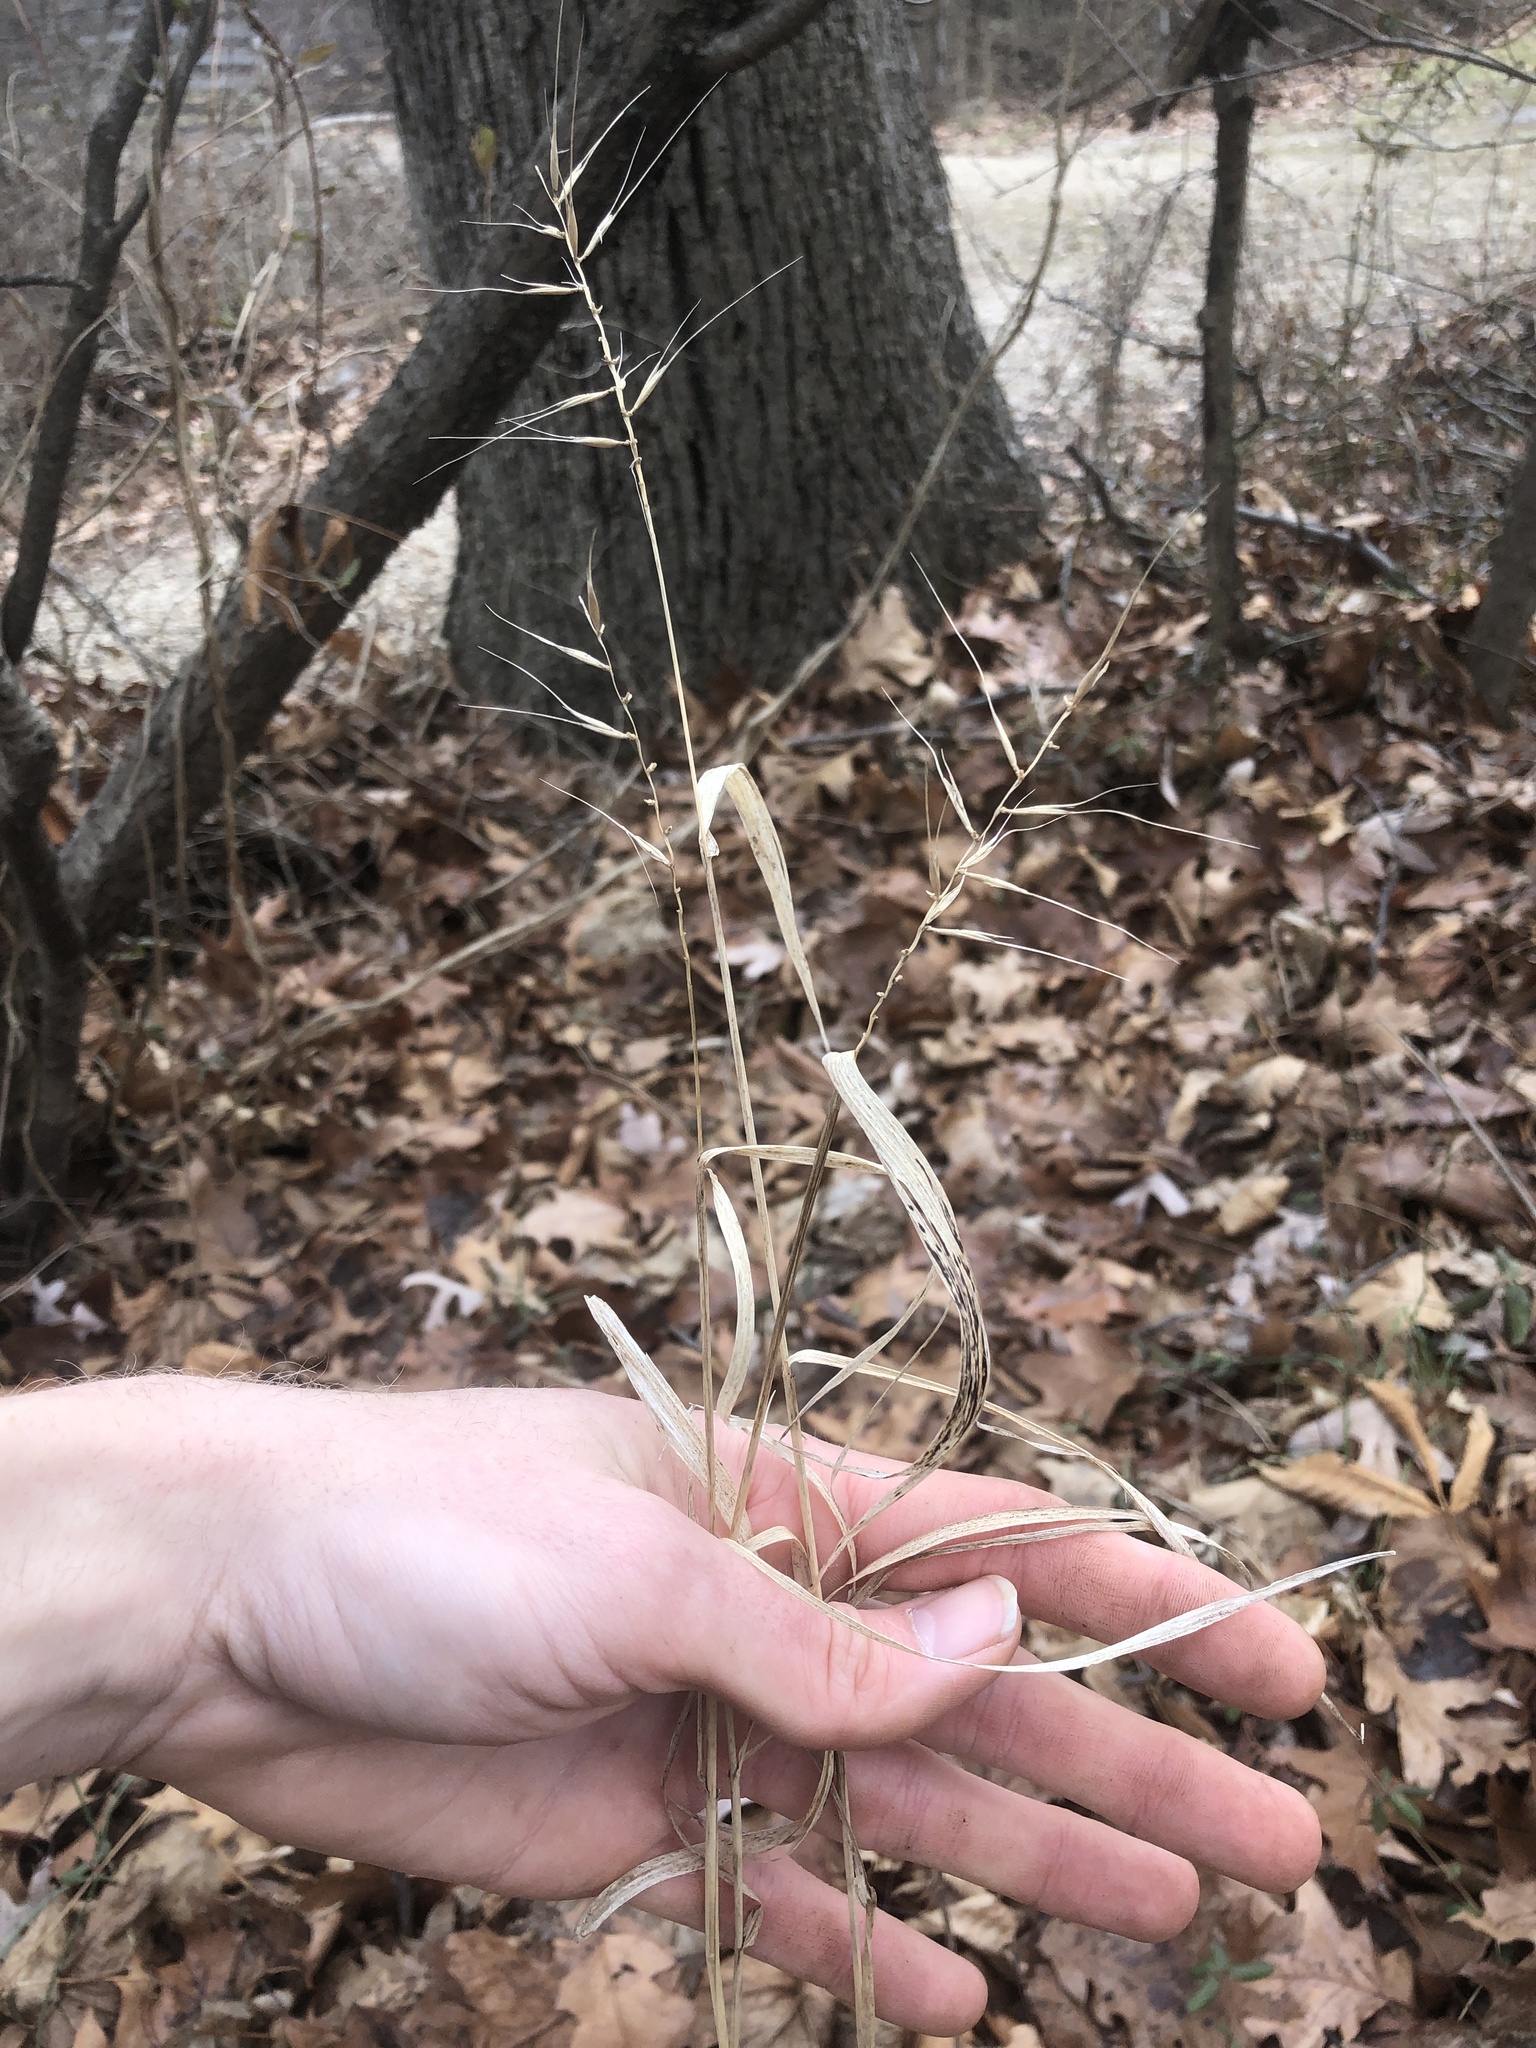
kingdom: Plantae
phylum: Tracheophyta
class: Liliopsida
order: Poales
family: Poaceae
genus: Elymus
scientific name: Elymus hystrix
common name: Bottlebrush grass
